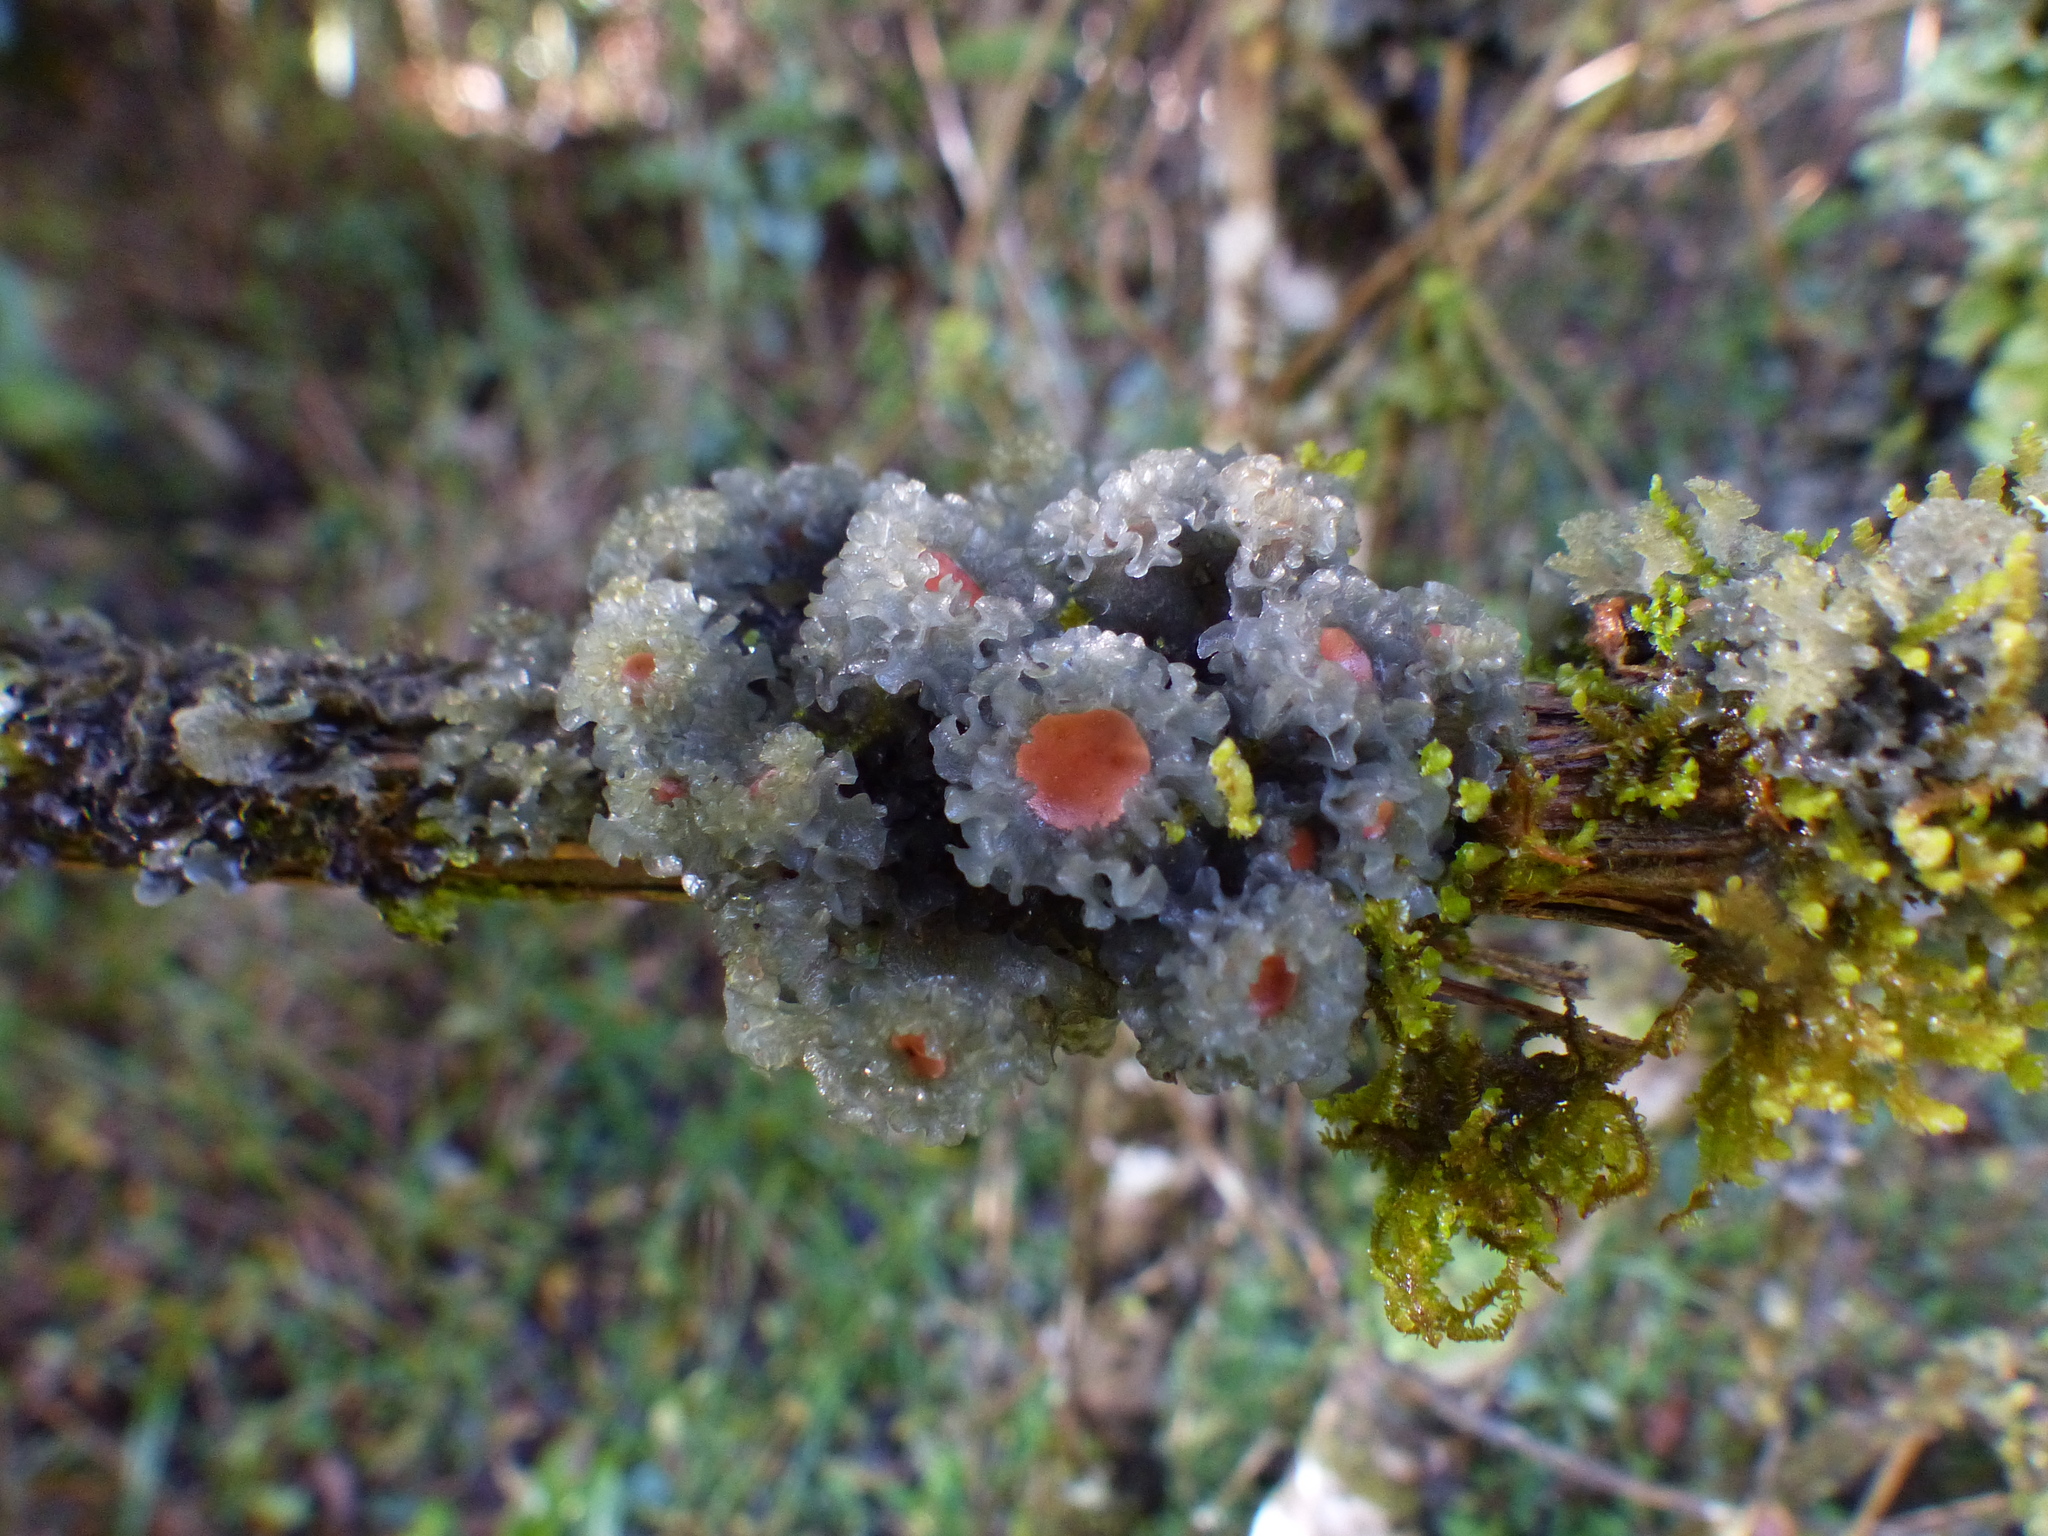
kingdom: Fungi
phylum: Ascomycota
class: Lecanoromycetes
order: Peltigerales
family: Collemataceae
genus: Leptogium
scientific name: Leptogium phyllocarpum
